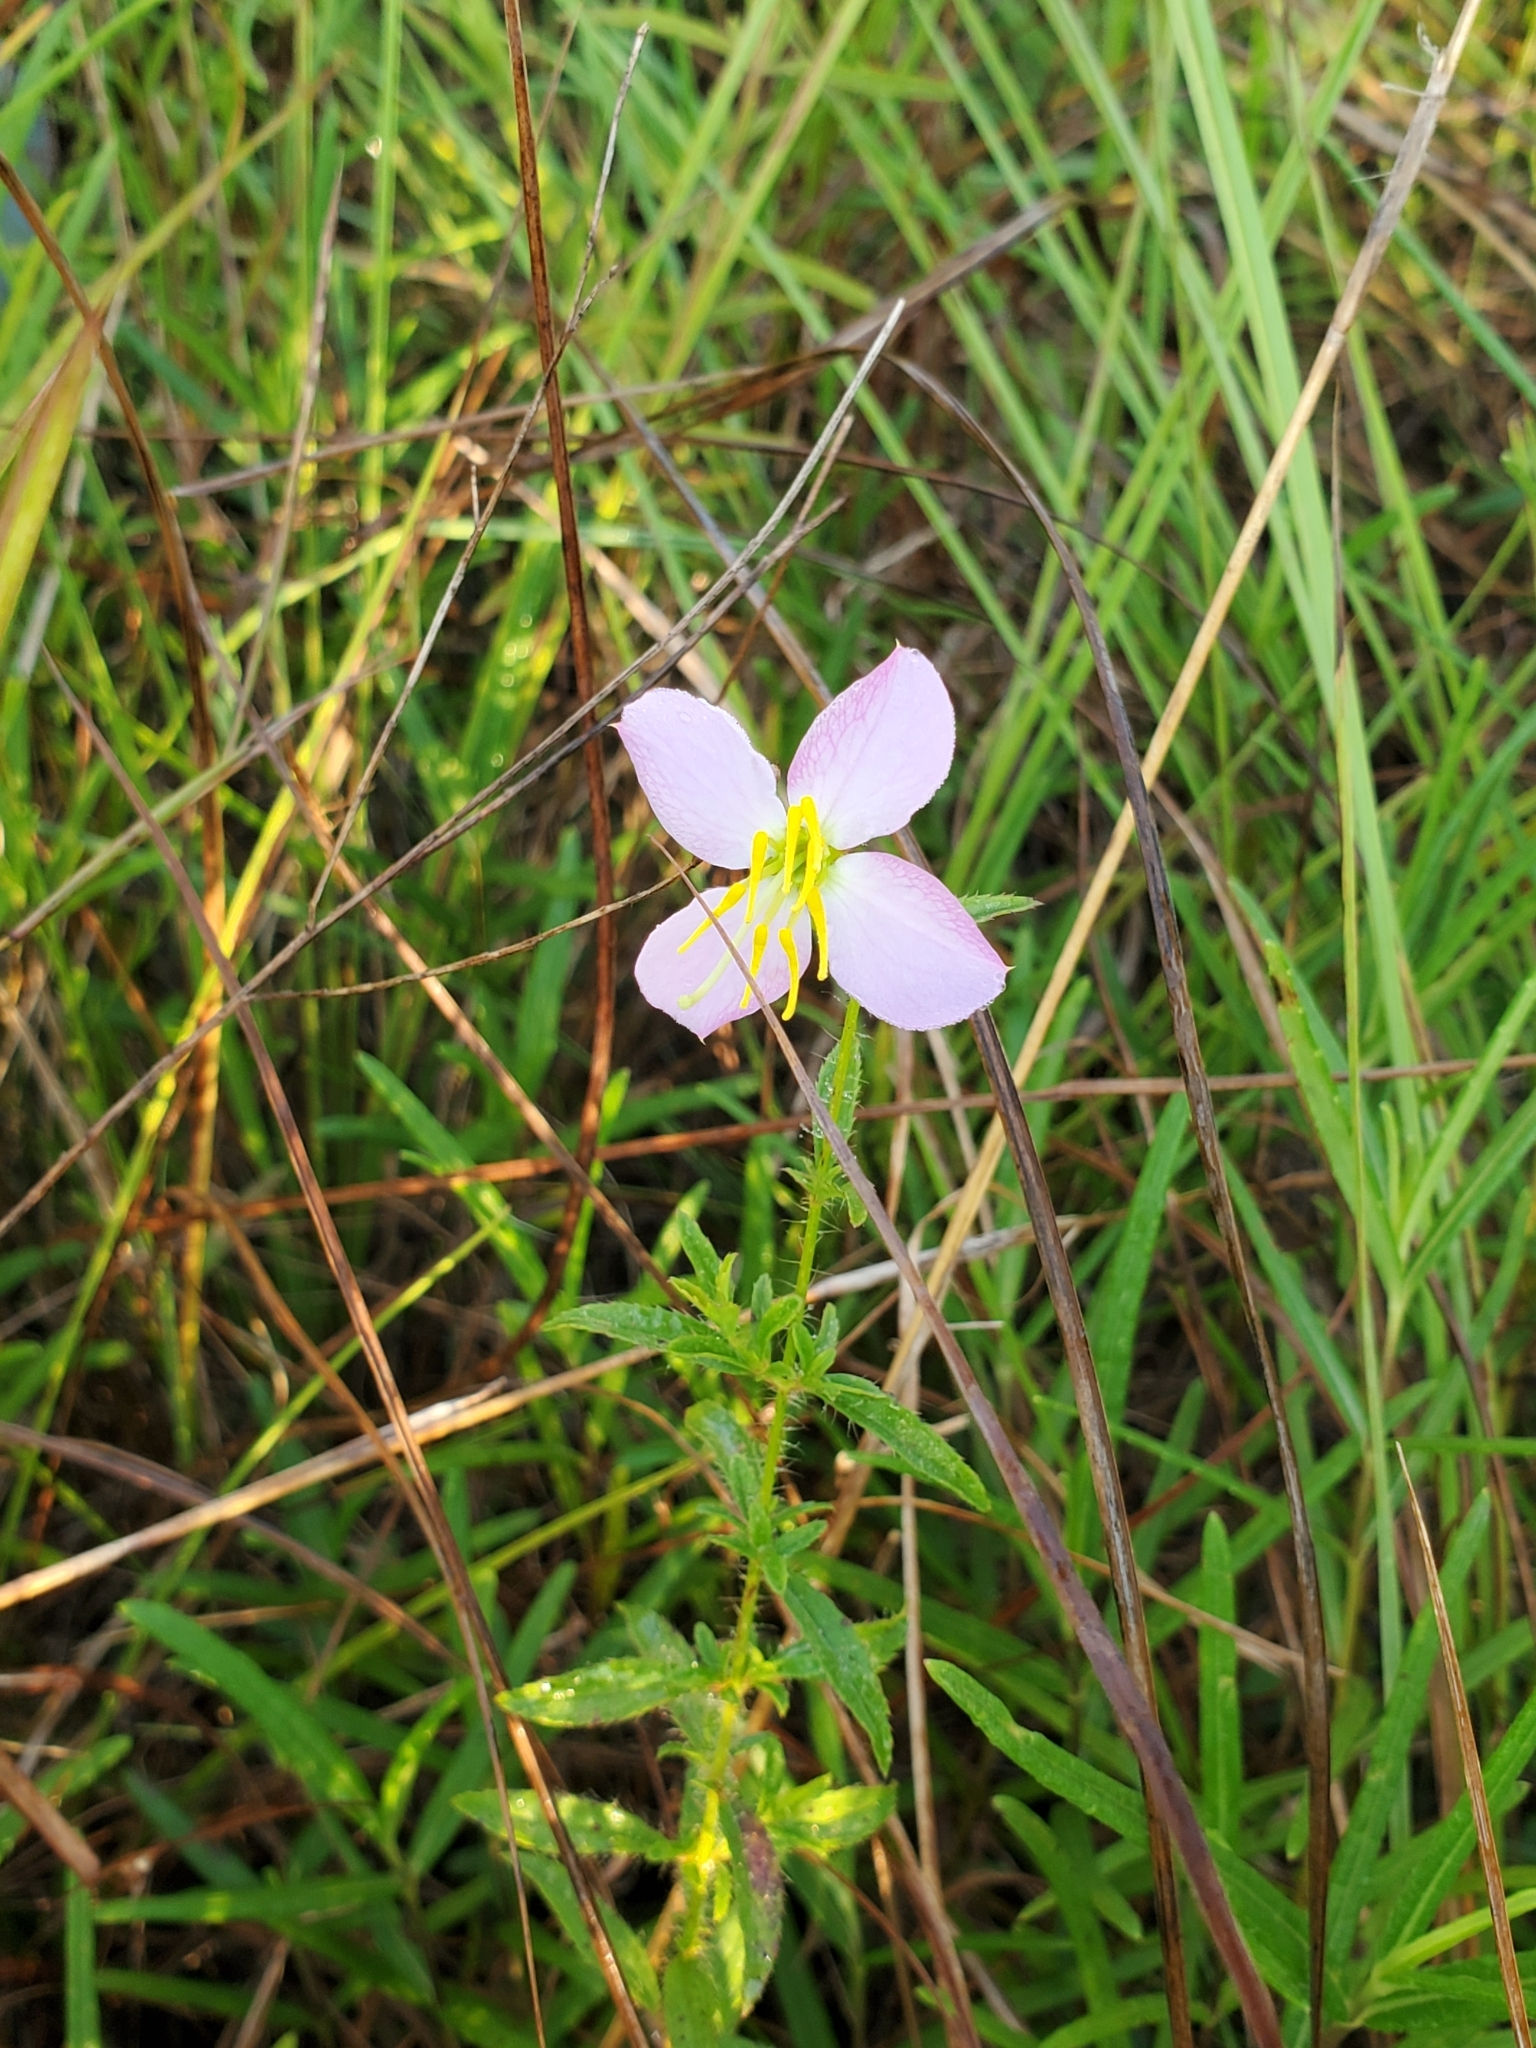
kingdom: Plantae
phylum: Tracheophyta
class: Magnoliopsida
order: Myrtales
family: Melastomataceae
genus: Rhexia
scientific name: Rhexia mariana
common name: Dull meadow-pitcher
